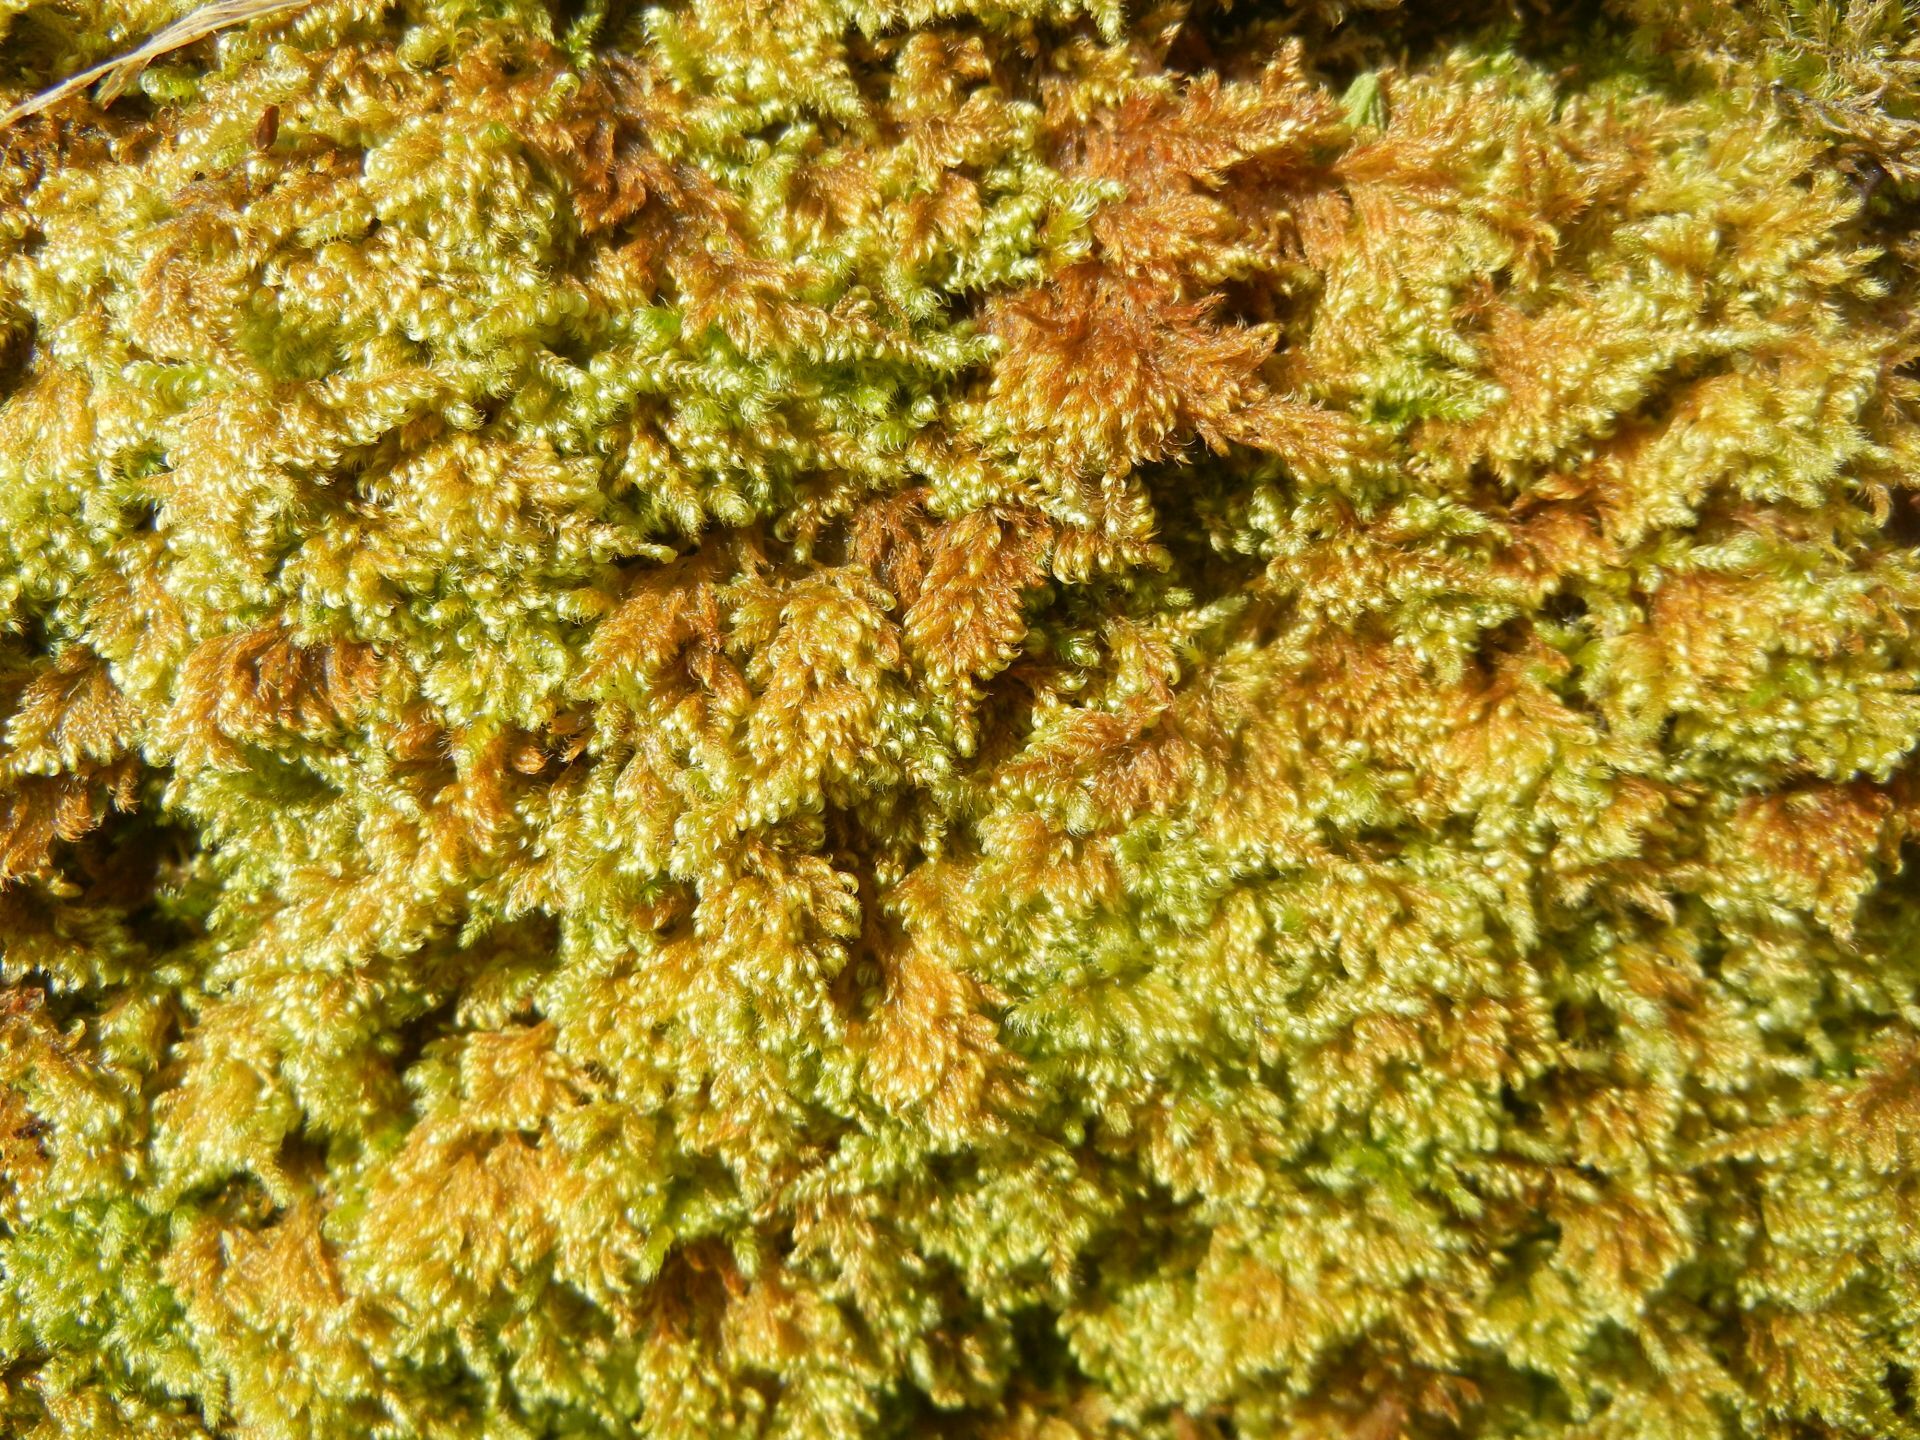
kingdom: Plantae
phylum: Bryophyta
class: Bryopsida
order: Hypnales
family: Myuriaceae
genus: Ctenidium
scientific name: Ctenidium molluscum
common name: Chalk comb-moss
